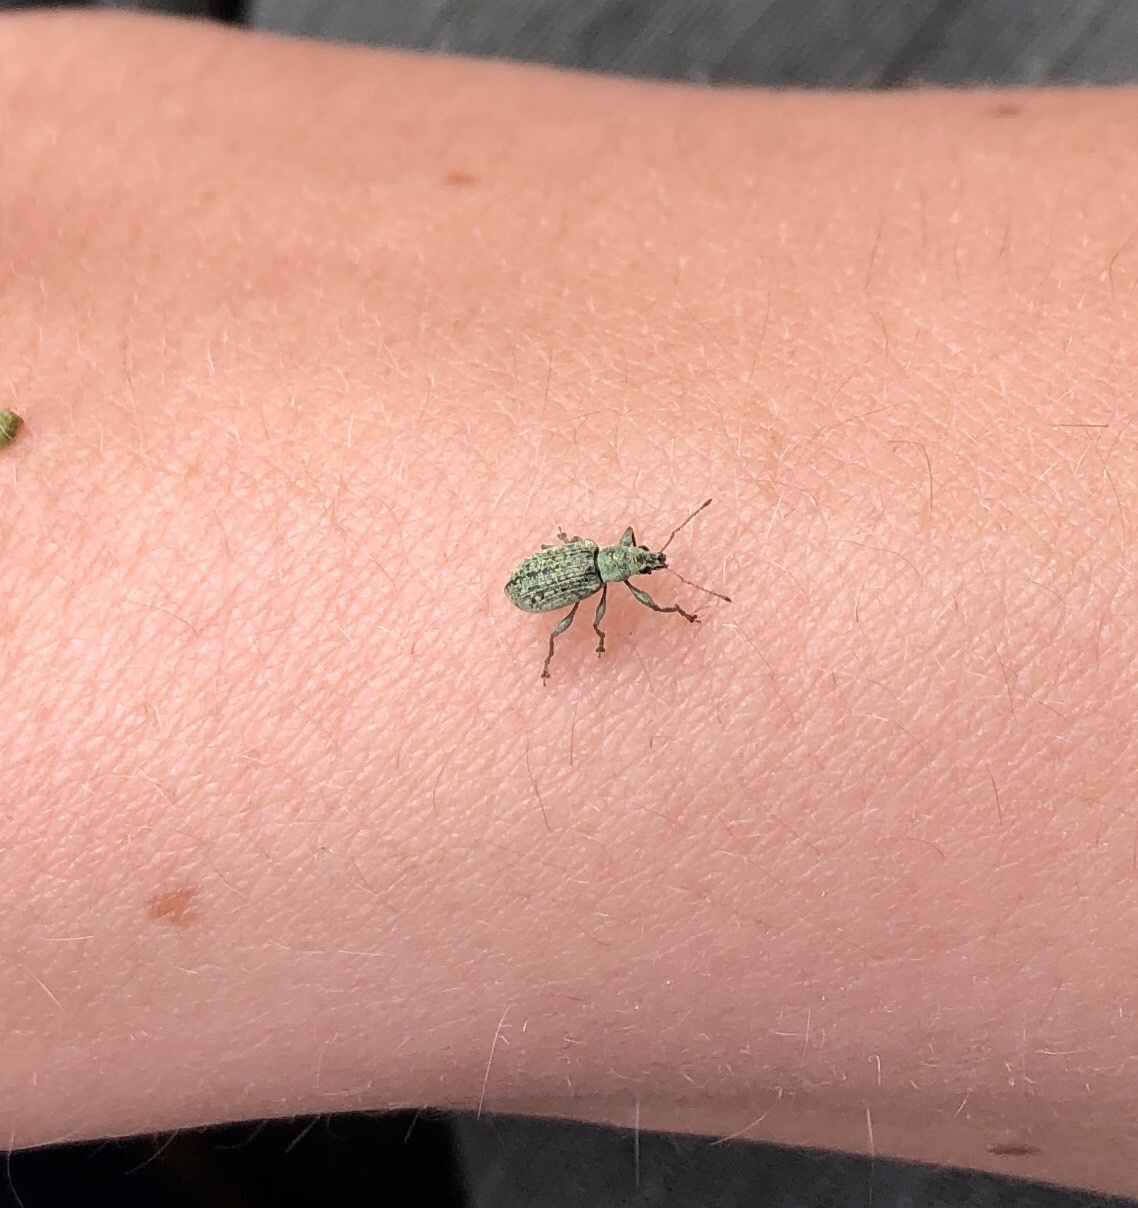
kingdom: Animalia
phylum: Arthropoda
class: Insecta
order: Coleoptera
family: Curculionidae
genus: Polydrusus
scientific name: Polydrusus formosus
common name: Weevil
